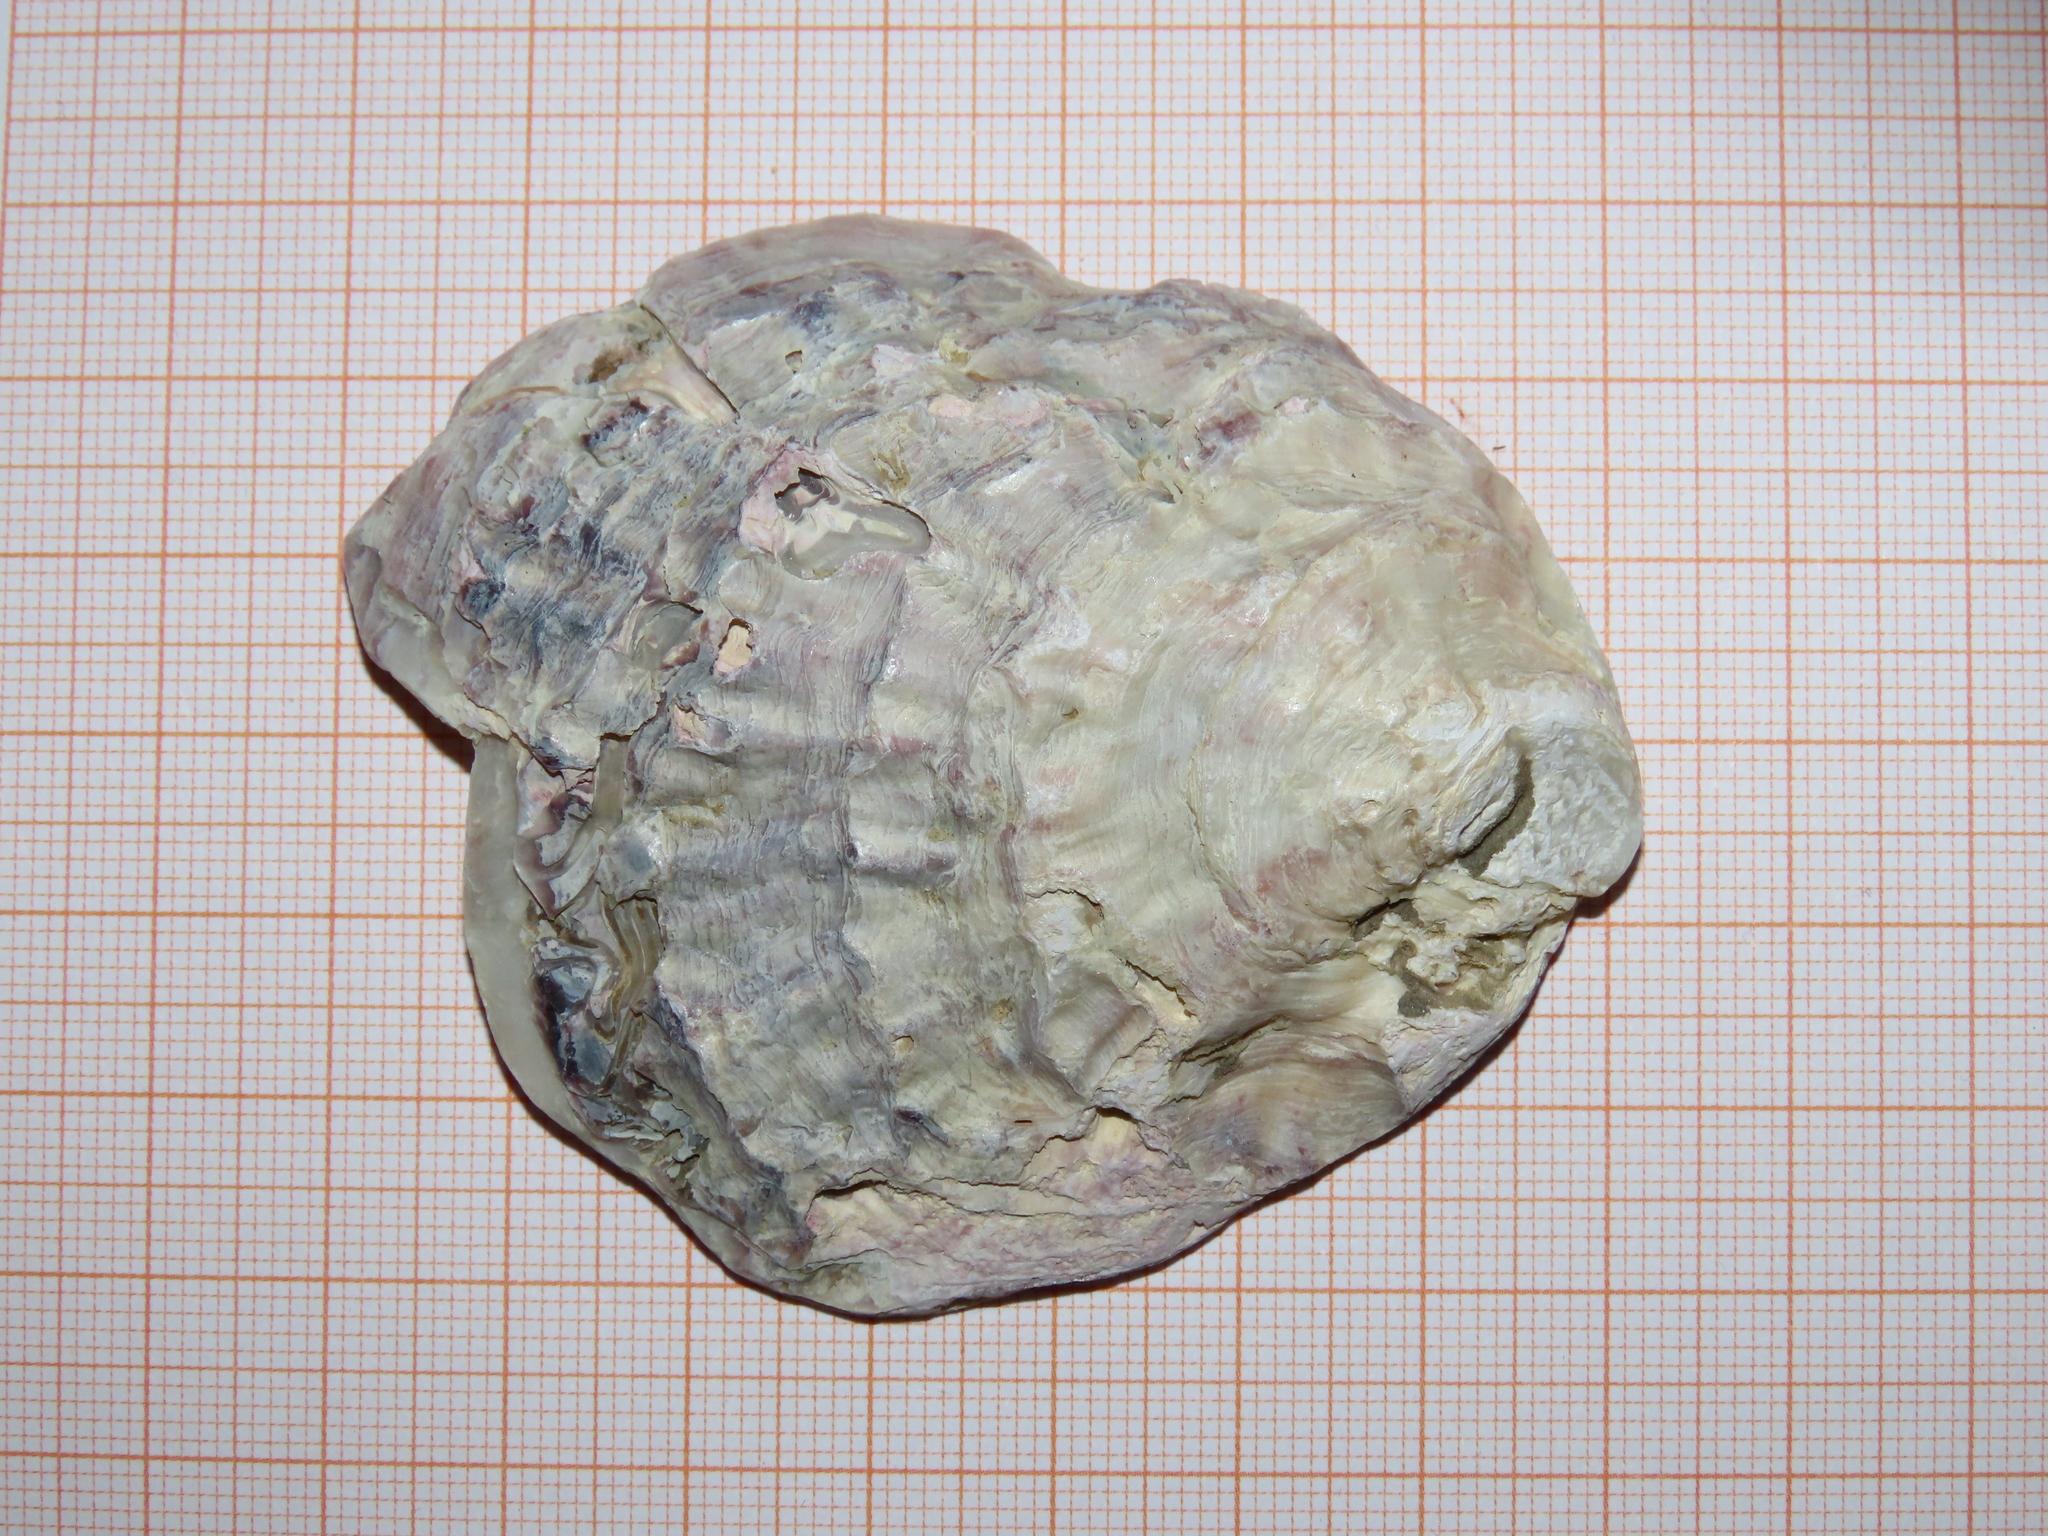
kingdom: Animalia
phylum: Mollusca
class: Bivalvia
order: Ostreida
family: Ostreidae
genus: Ostrea
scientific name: Ostrea edulis
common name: Flat oyster
